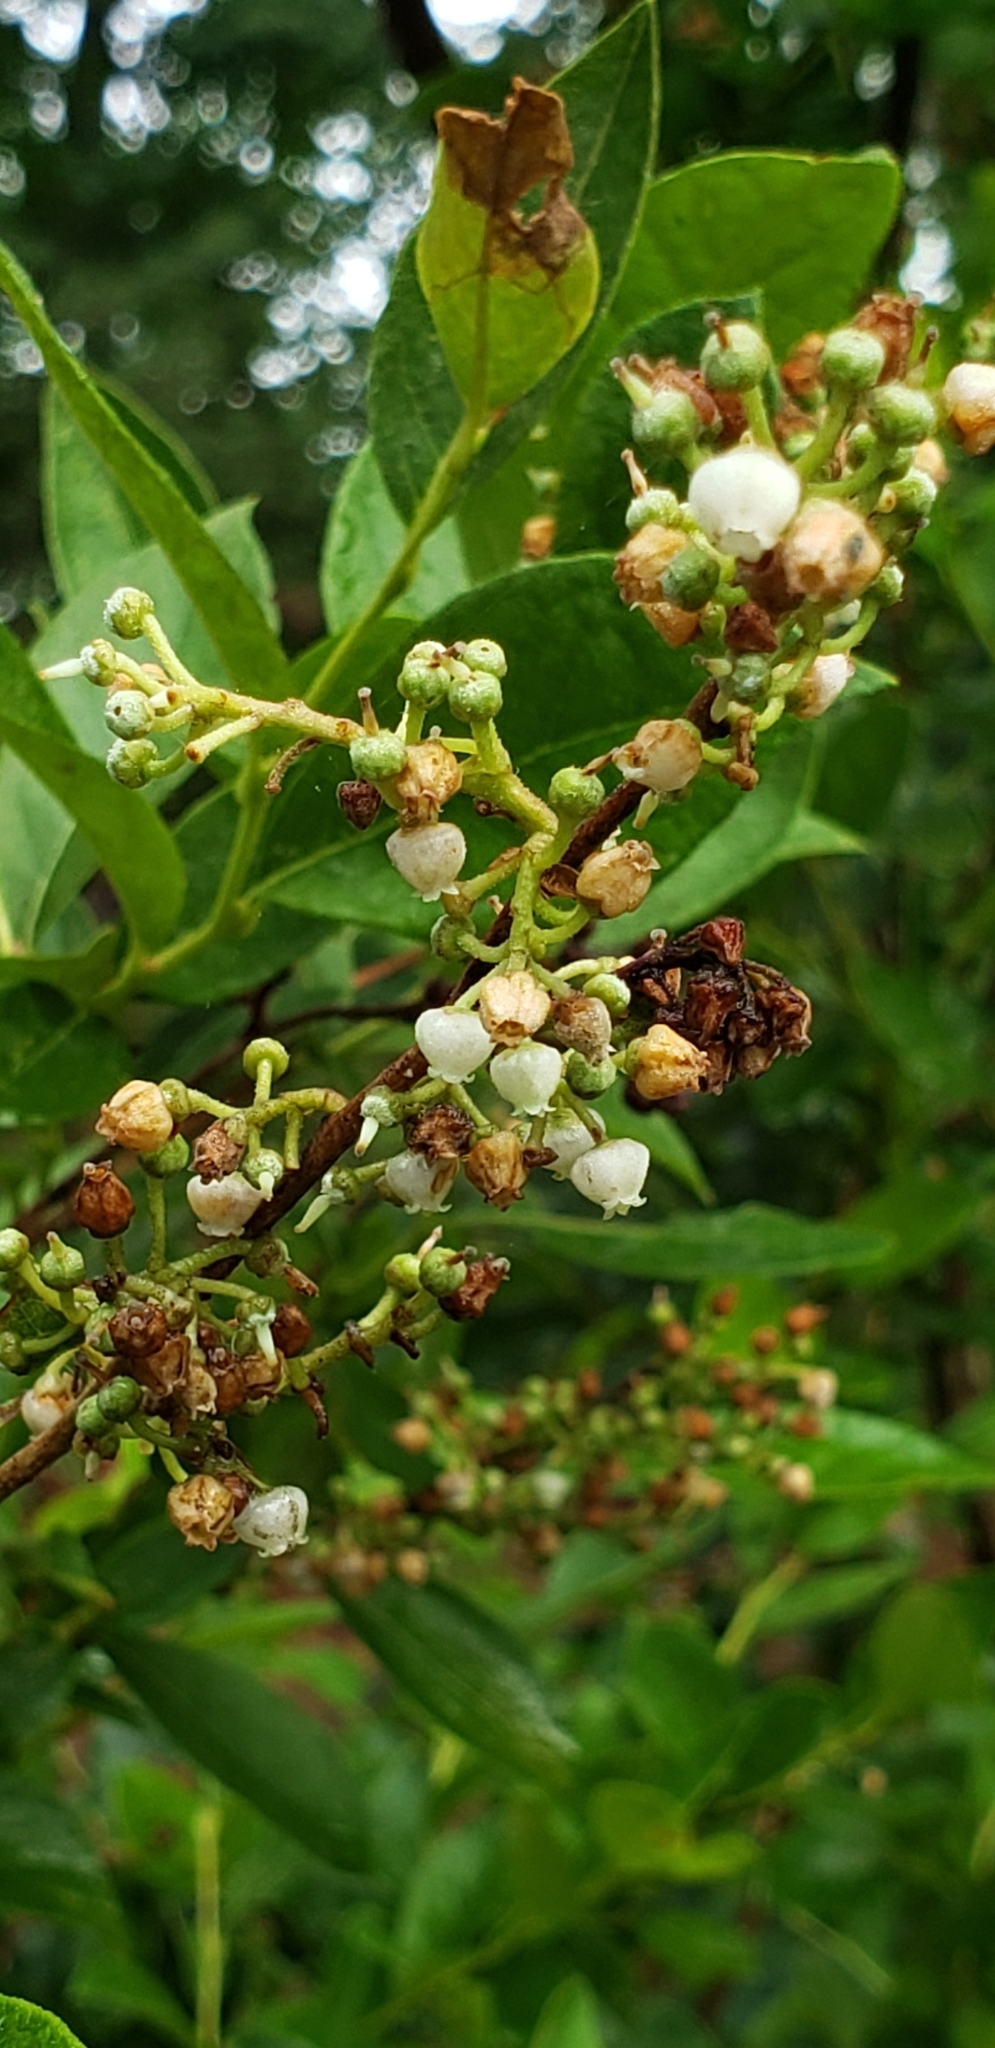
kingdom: Plantae
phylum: Tracheophyta
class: Magnoliopsida
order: Ericales
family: Ericaceae
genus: Lyonia
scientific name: Lyonia ligustrina
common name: Maleberry
